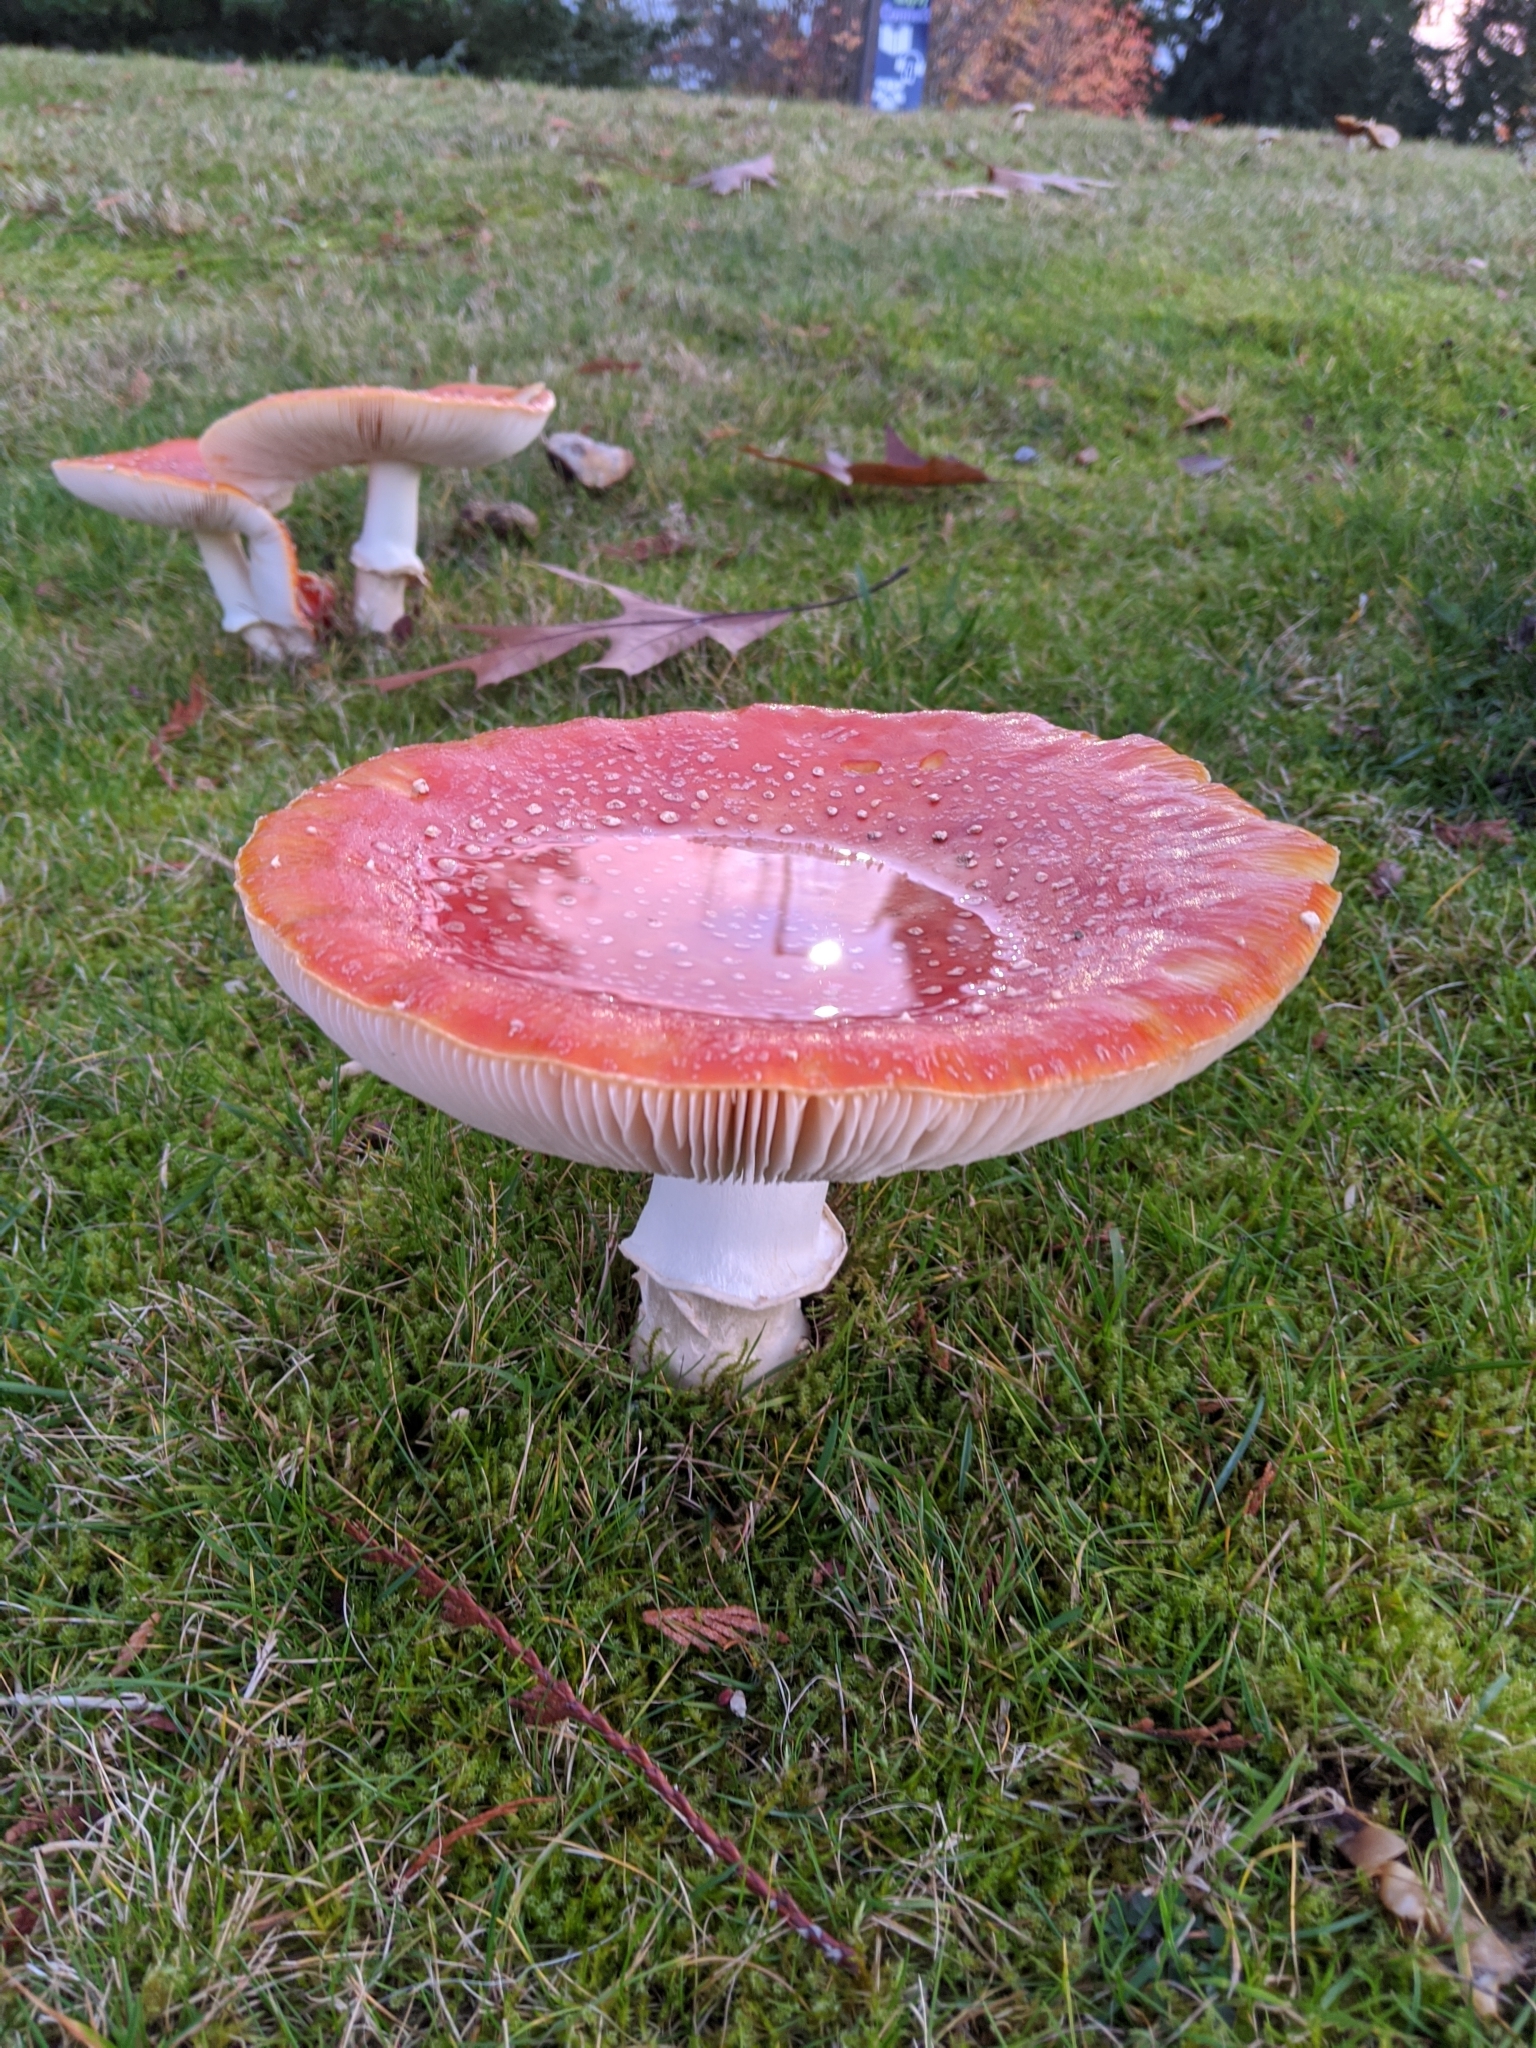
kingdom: Fungi
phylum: Basidiomycota
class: Agaricomycetes
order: Agaricales
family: Amanitaceae
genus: Amanita
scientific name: Amanita muscaria
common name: Fly agaric
